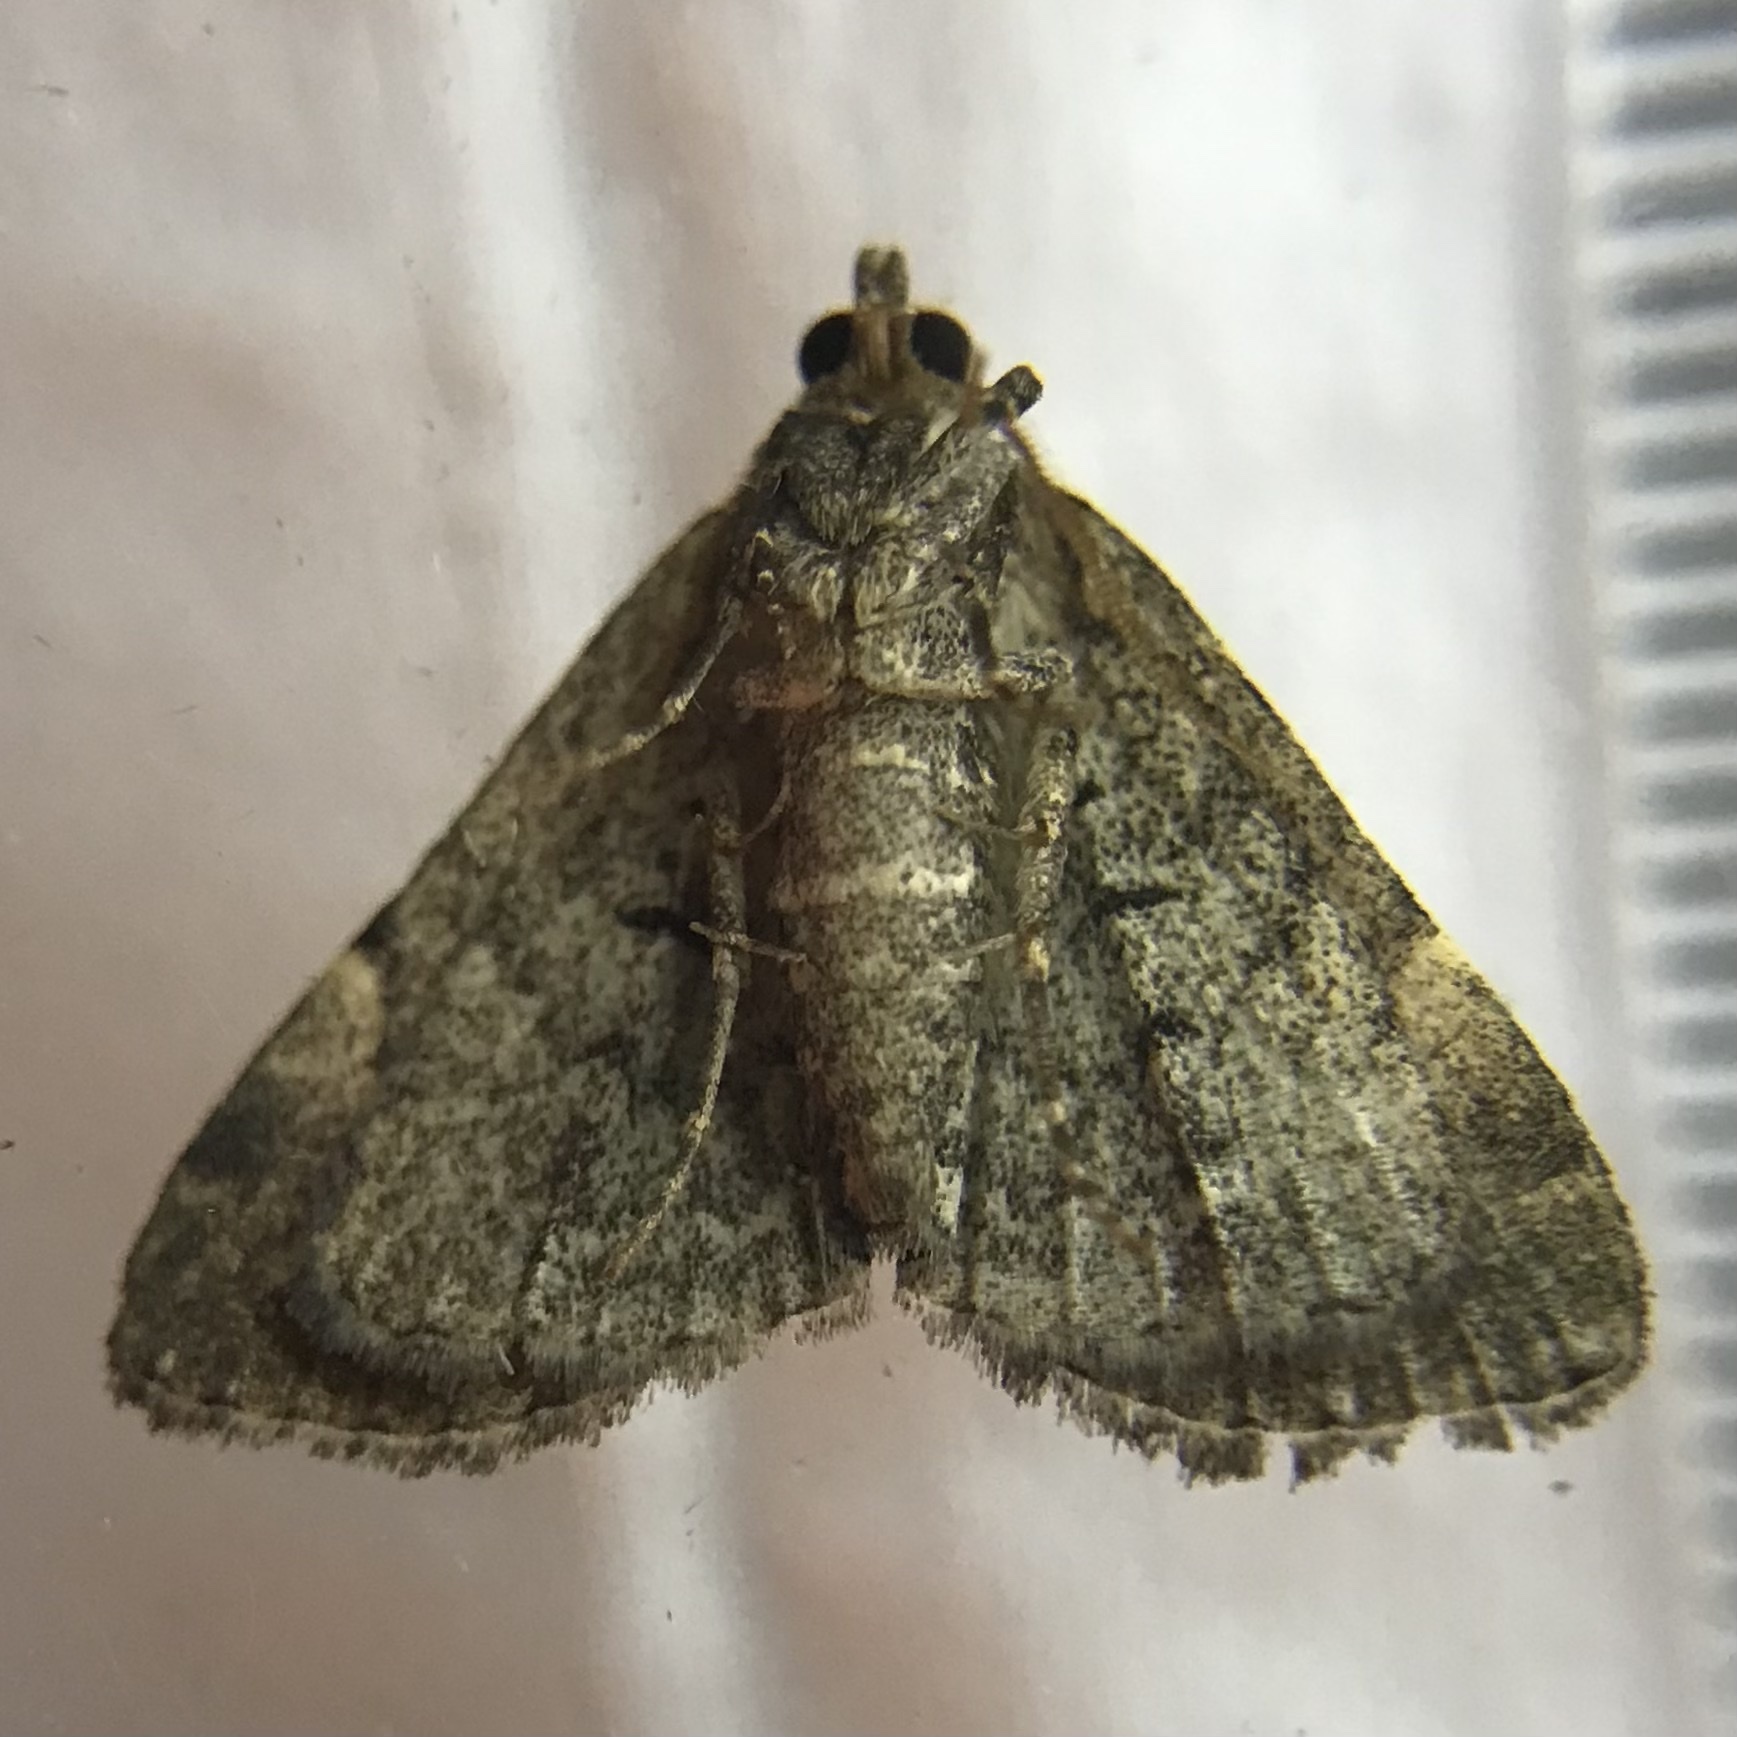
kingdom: Animalia
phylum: Arthropoda
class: Insecta
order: Lepidoptera
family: Erebidae
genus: Idia
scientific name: Idia aemula
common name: Common idia moth
